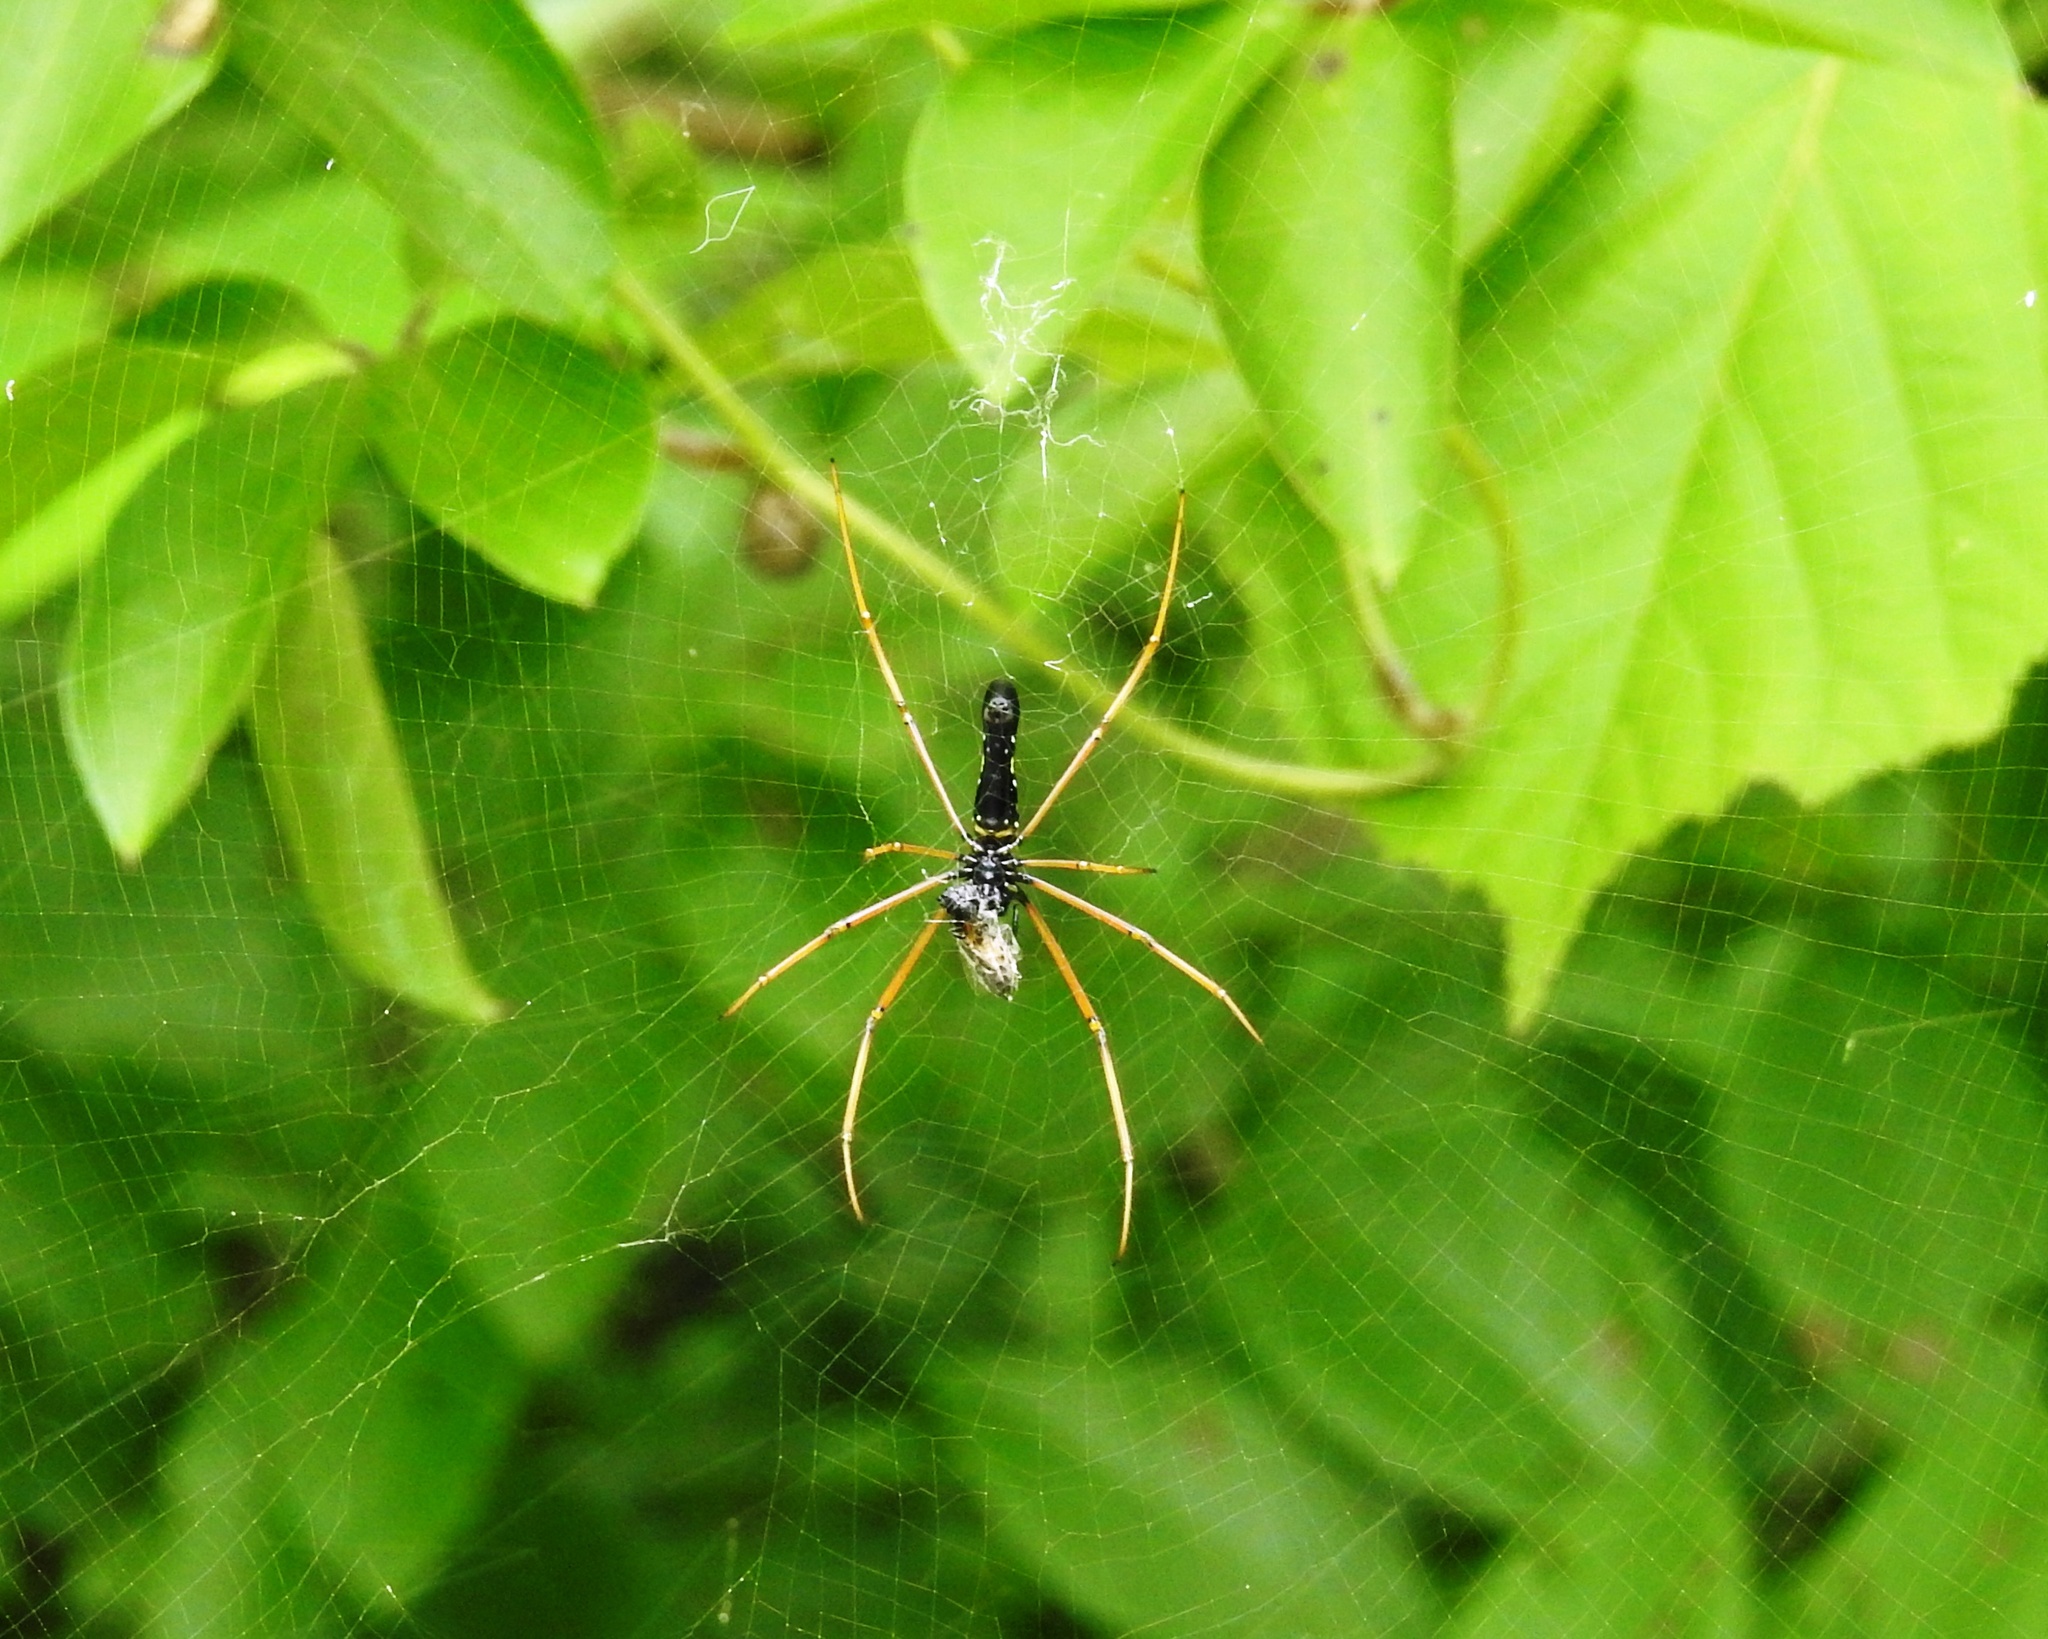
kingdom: Animalia
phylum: Arthropoda
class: Arachnida
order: Araneae
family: Araneidae
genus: Nephila
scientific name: Nephila kuhli
